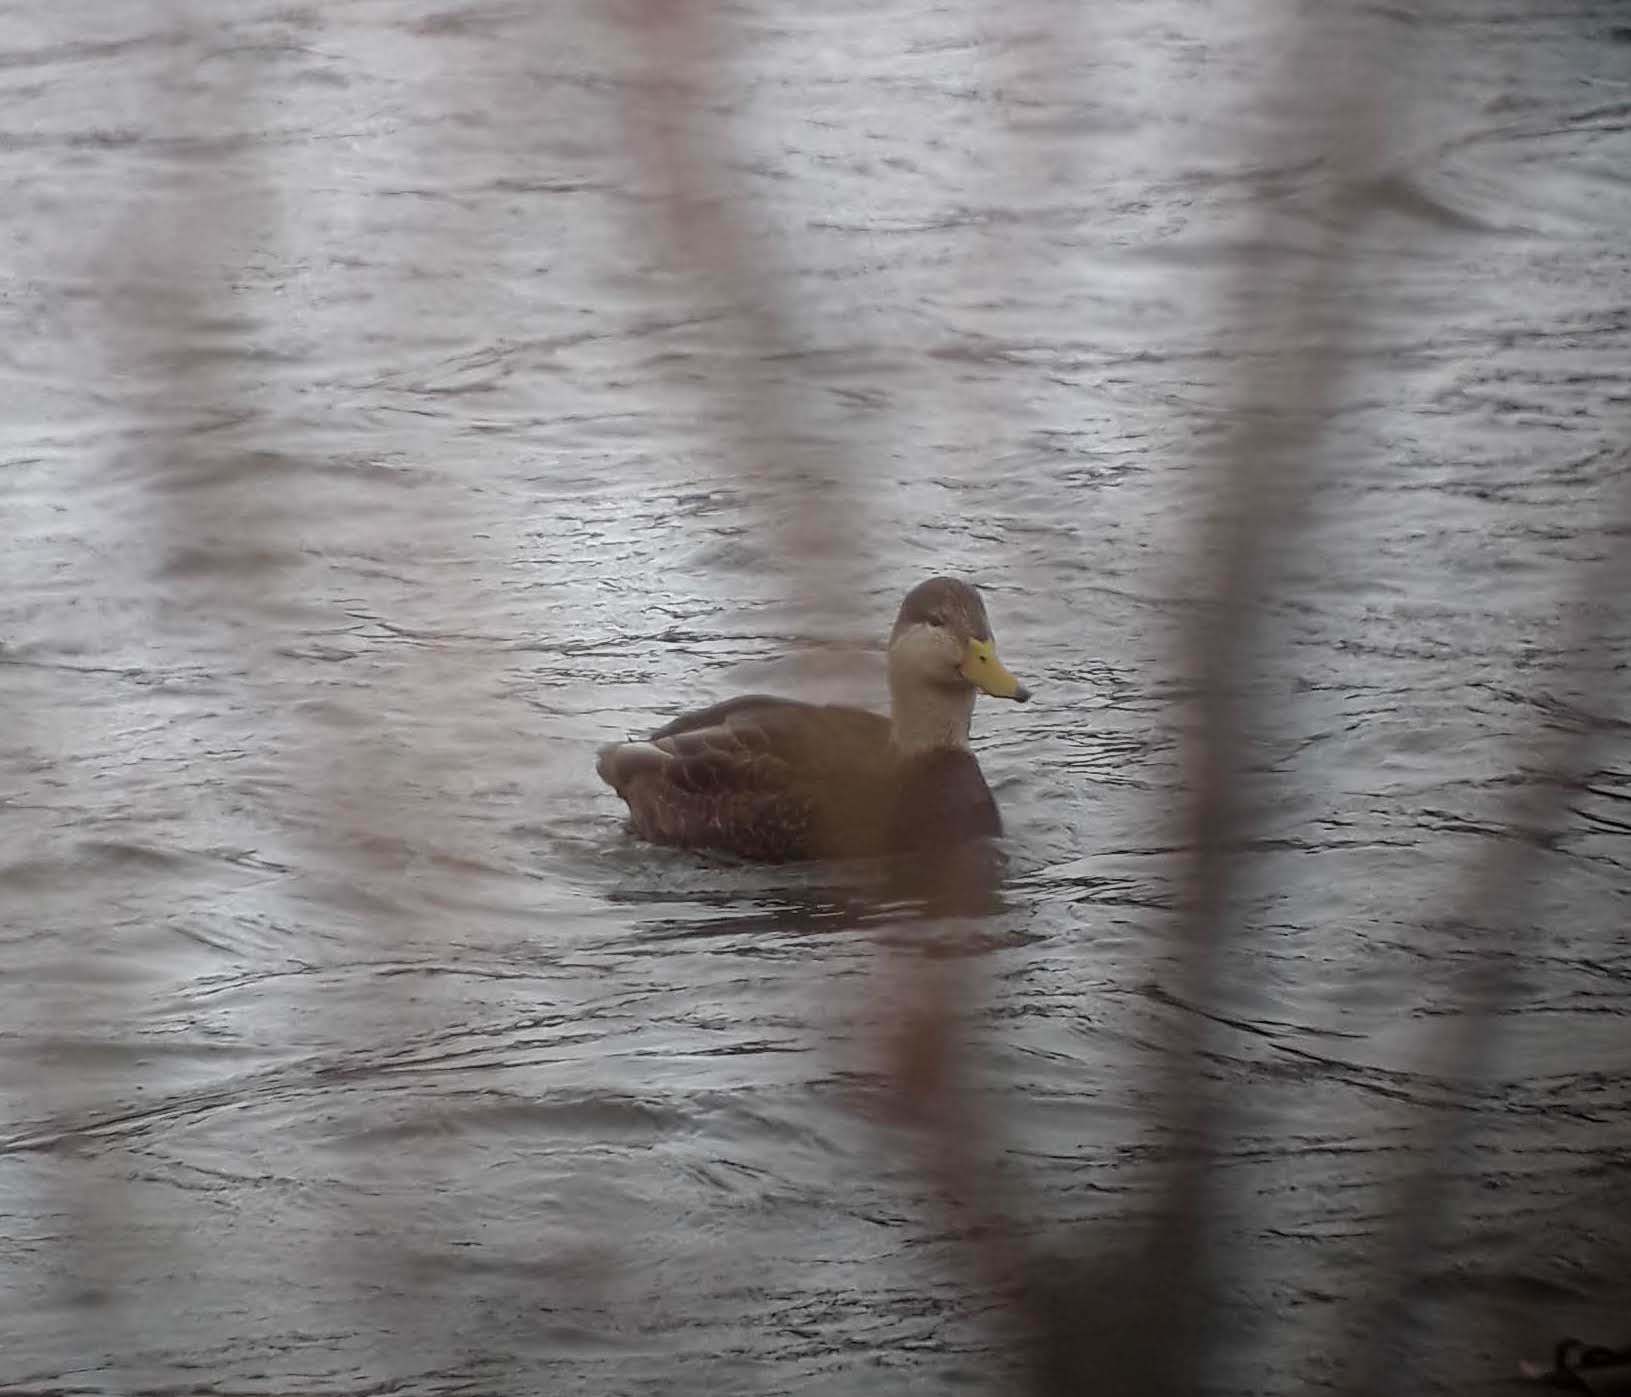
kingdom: Animalia
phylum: Chordata
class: Aves
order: Anseriformes
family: Anatidae
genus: Anas
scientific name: Anas
